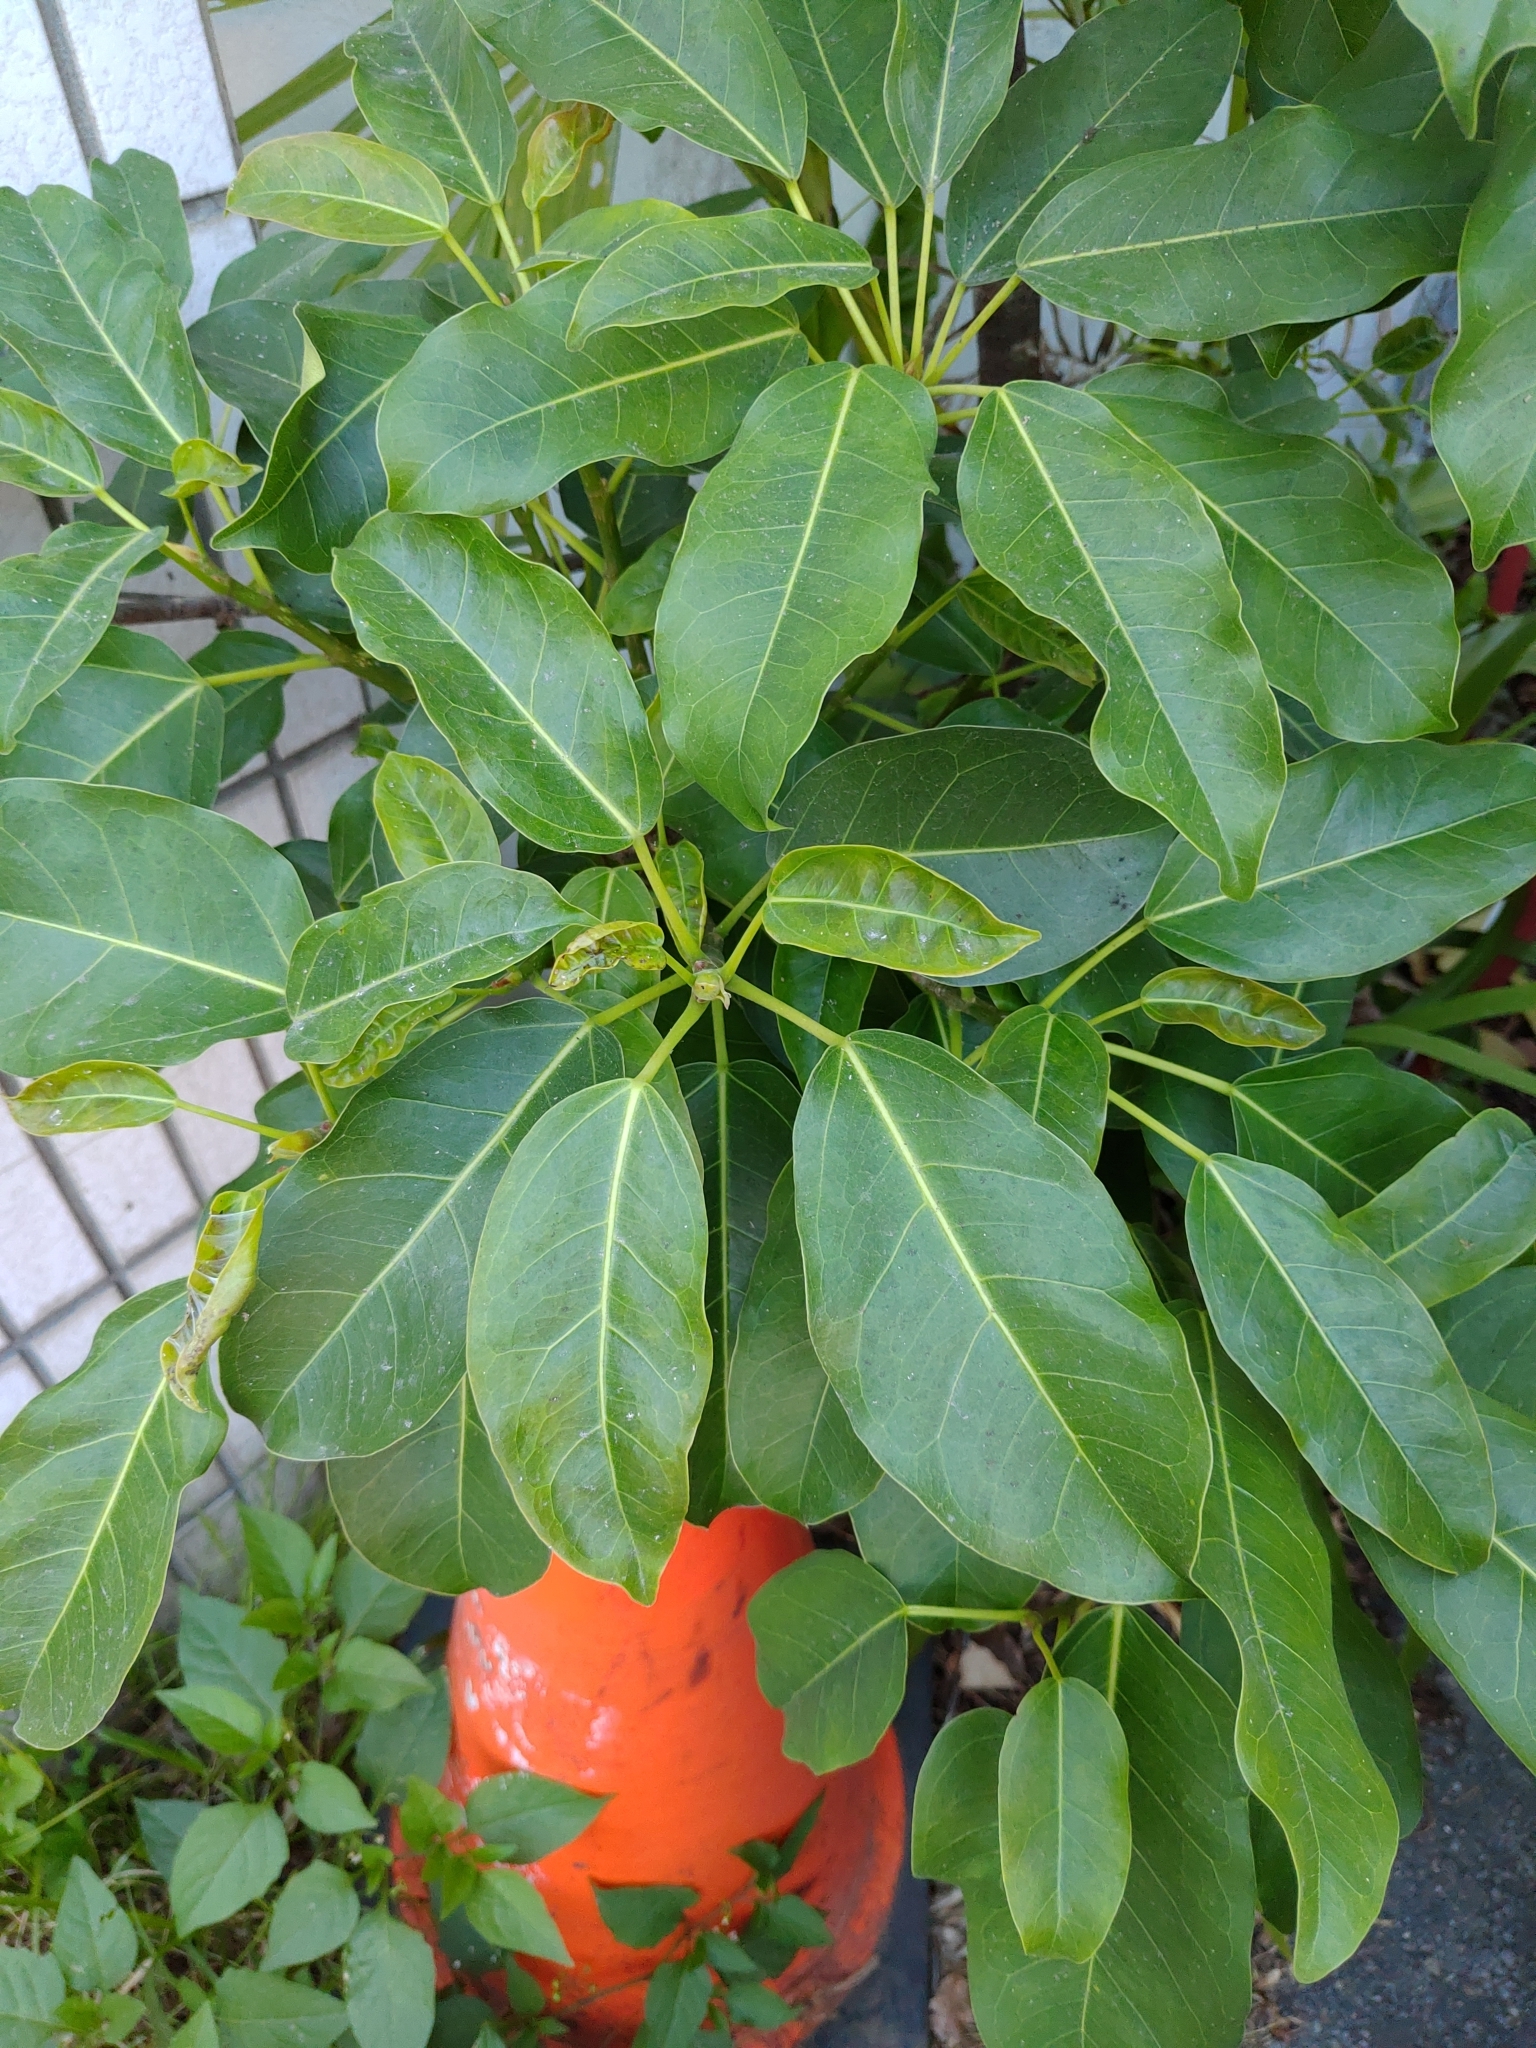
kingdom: Plantae
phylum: Tracheophyta
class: Magnoliopsida
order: Rosales
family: Moraceae
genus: Ficus
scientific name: Ficus subpisocarpa
